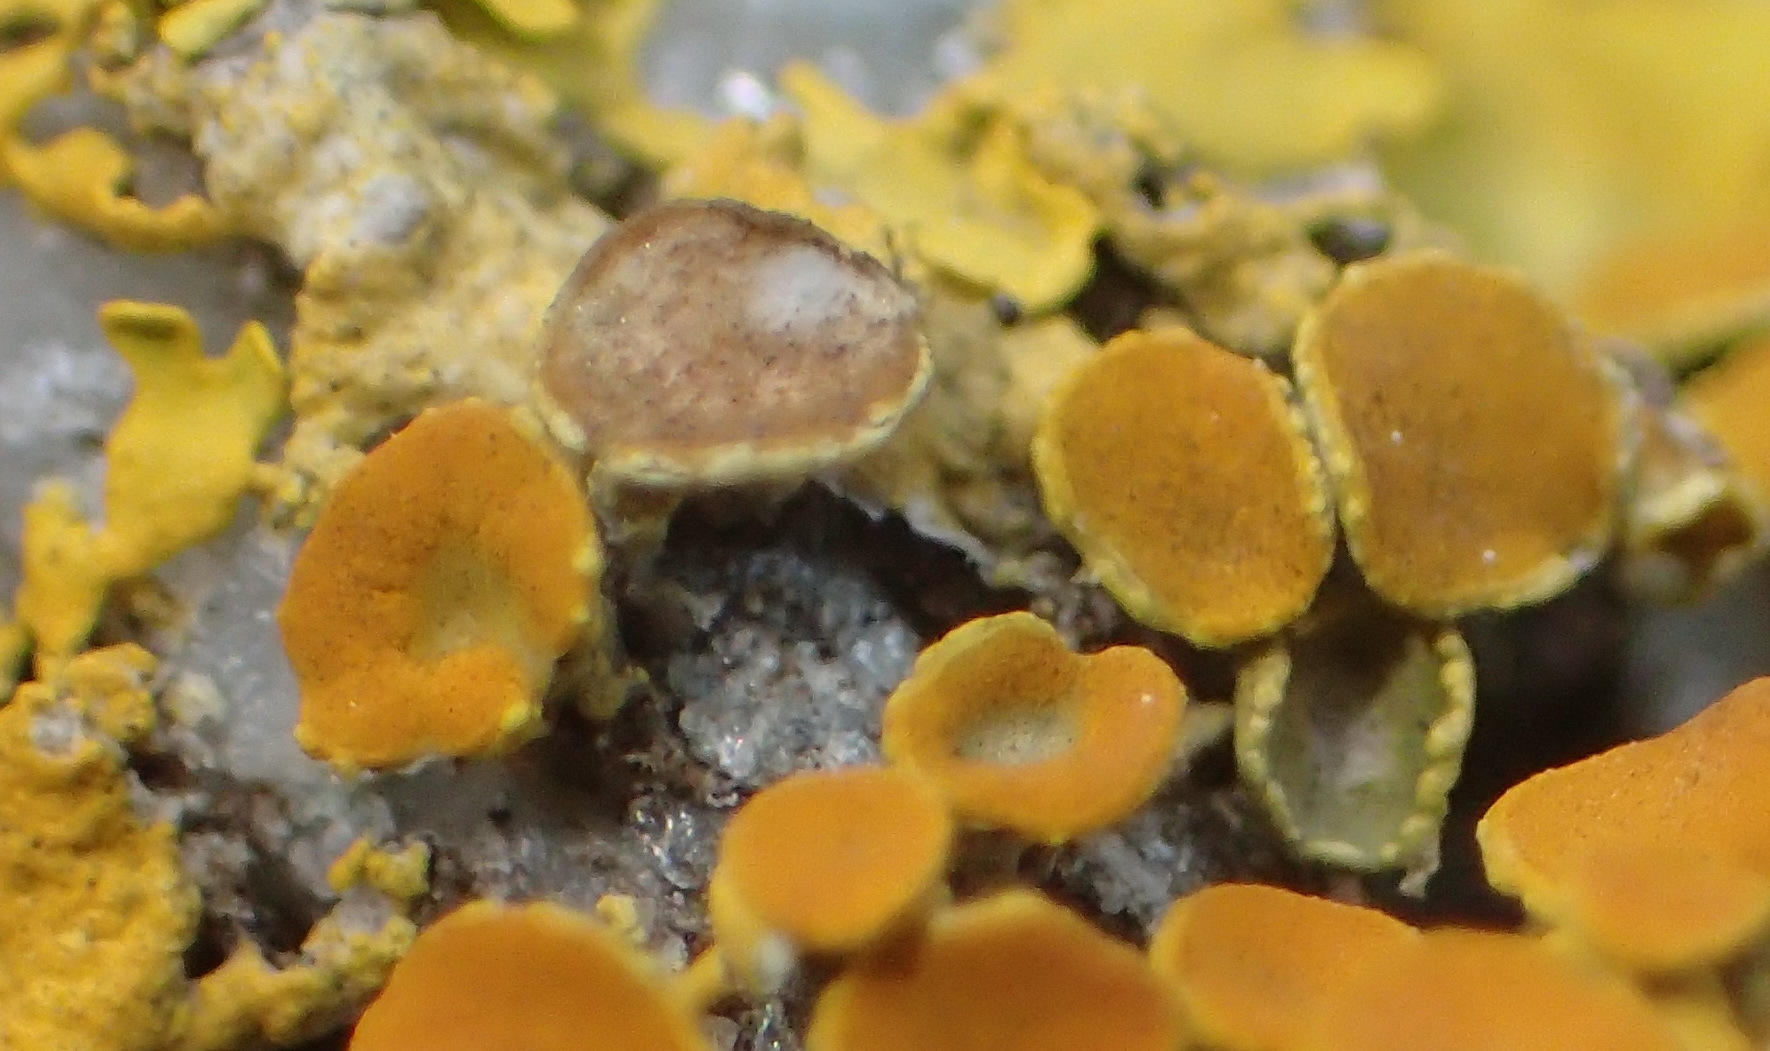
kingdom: Fungi
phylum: Ascomycota
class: Lecanoromycetes
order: Teloschistales
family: Teloschistaceae
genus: Xanthoria
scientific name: Xanthoria parietina
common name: Common orange lichen
